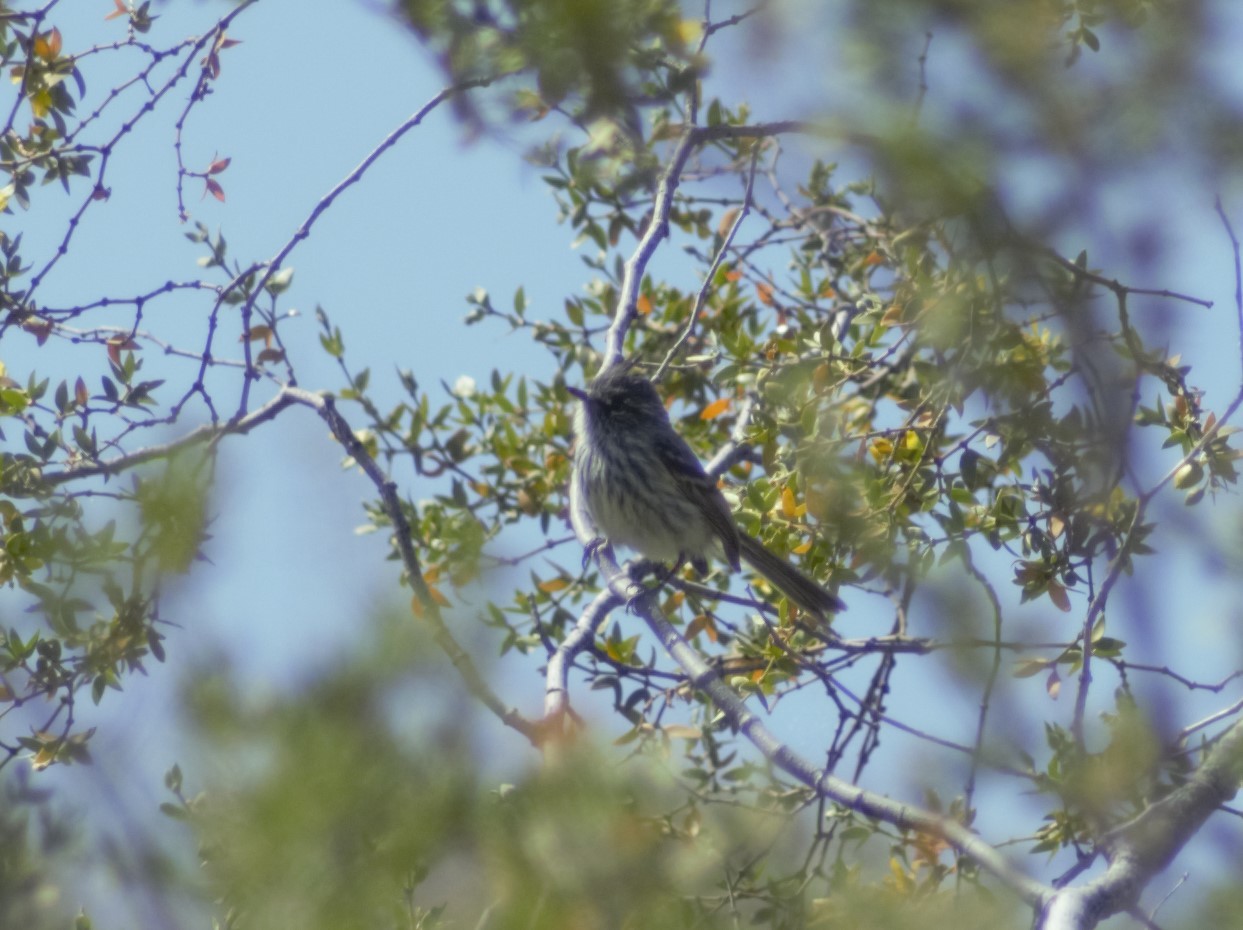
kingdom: Animalia
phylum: Chordata
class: Aves
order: Passeriformes
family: Tyrannidae
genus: Anairetes
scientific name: Anairetes parulus
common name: Tufted tit-tyrant
